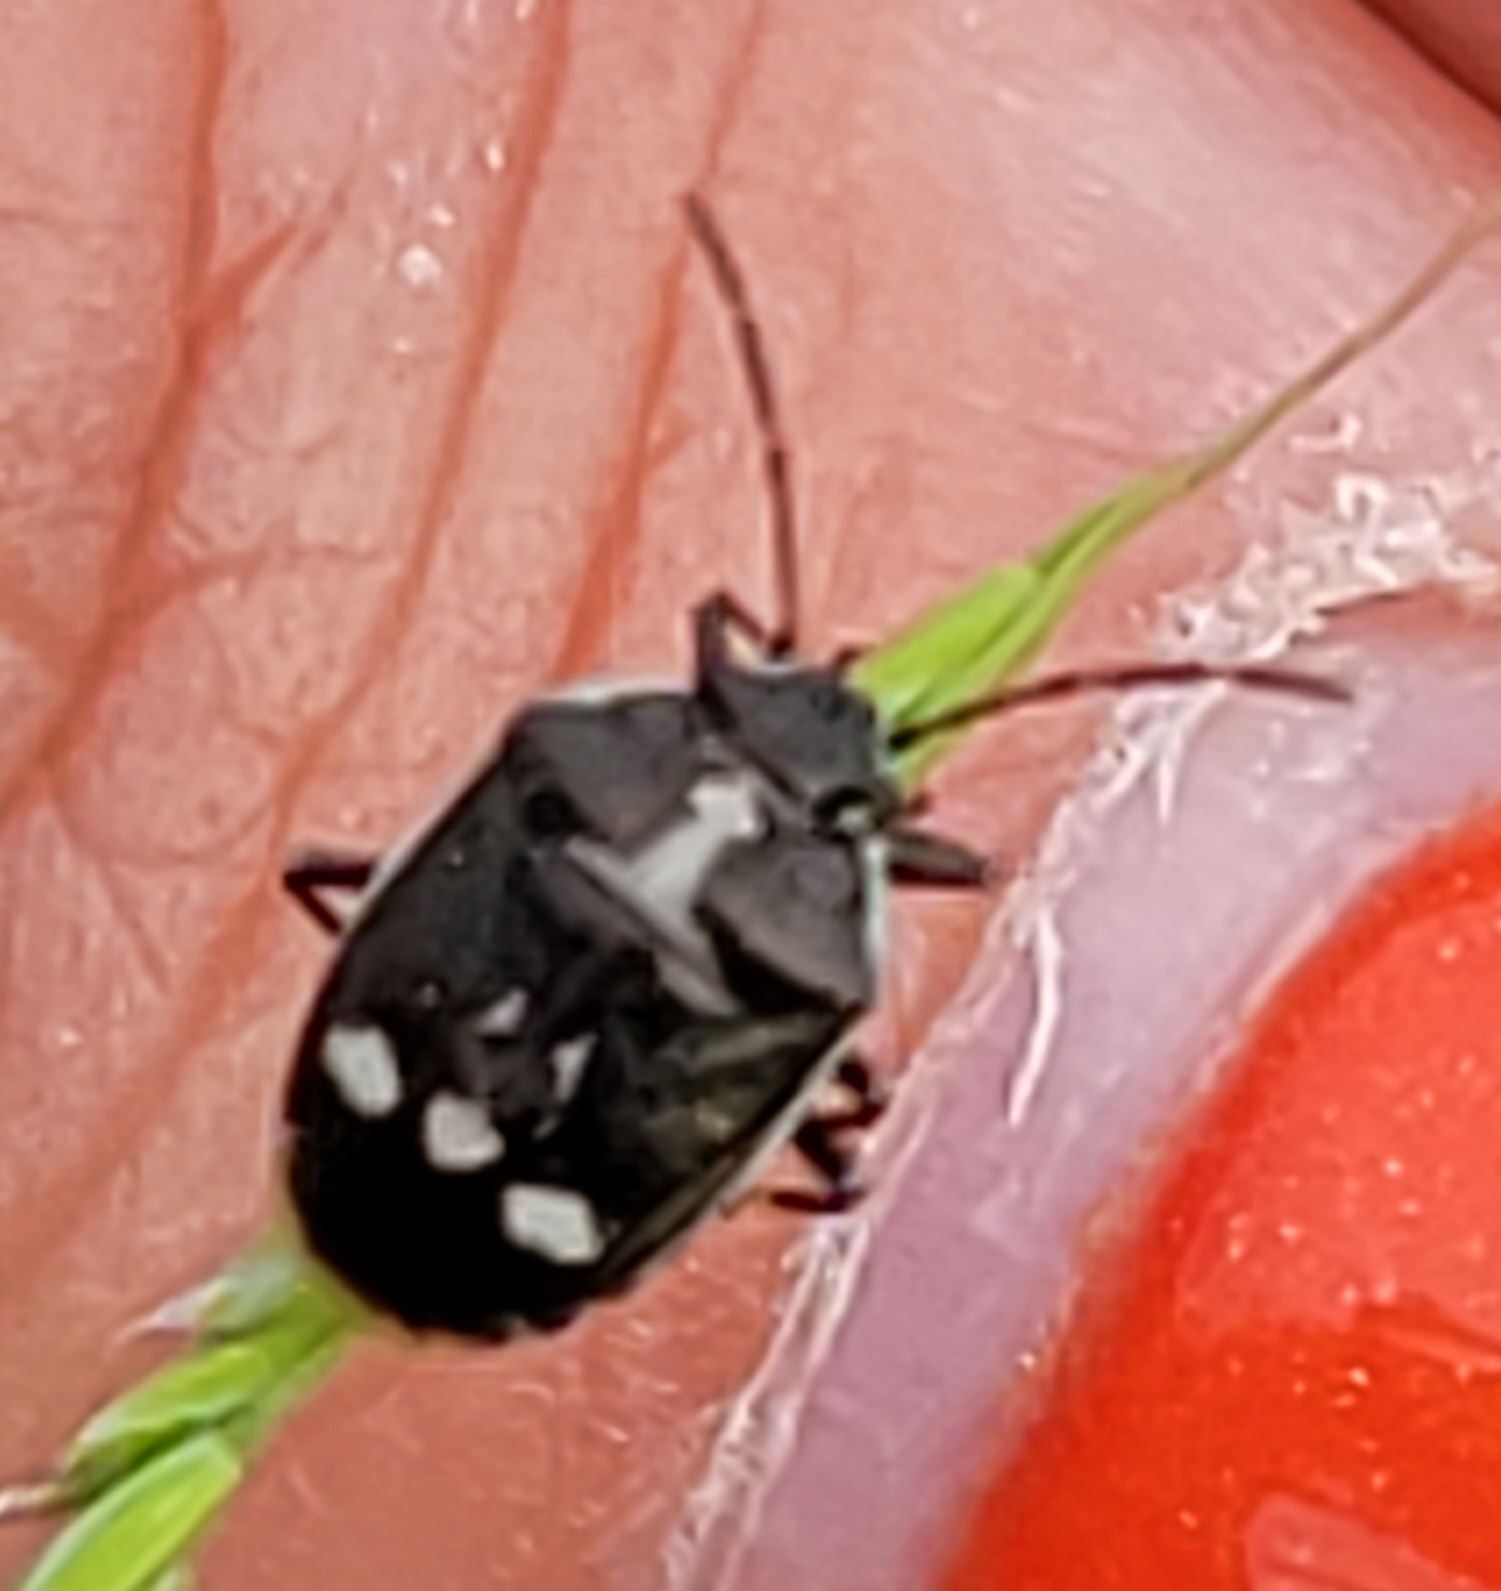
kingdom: Animalia
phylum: Arthropoda
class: Insecta
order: Hemiptera
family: Pentatomidae
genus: Eurydema
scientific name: Eurydema oleracea
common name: Cabbage bug
